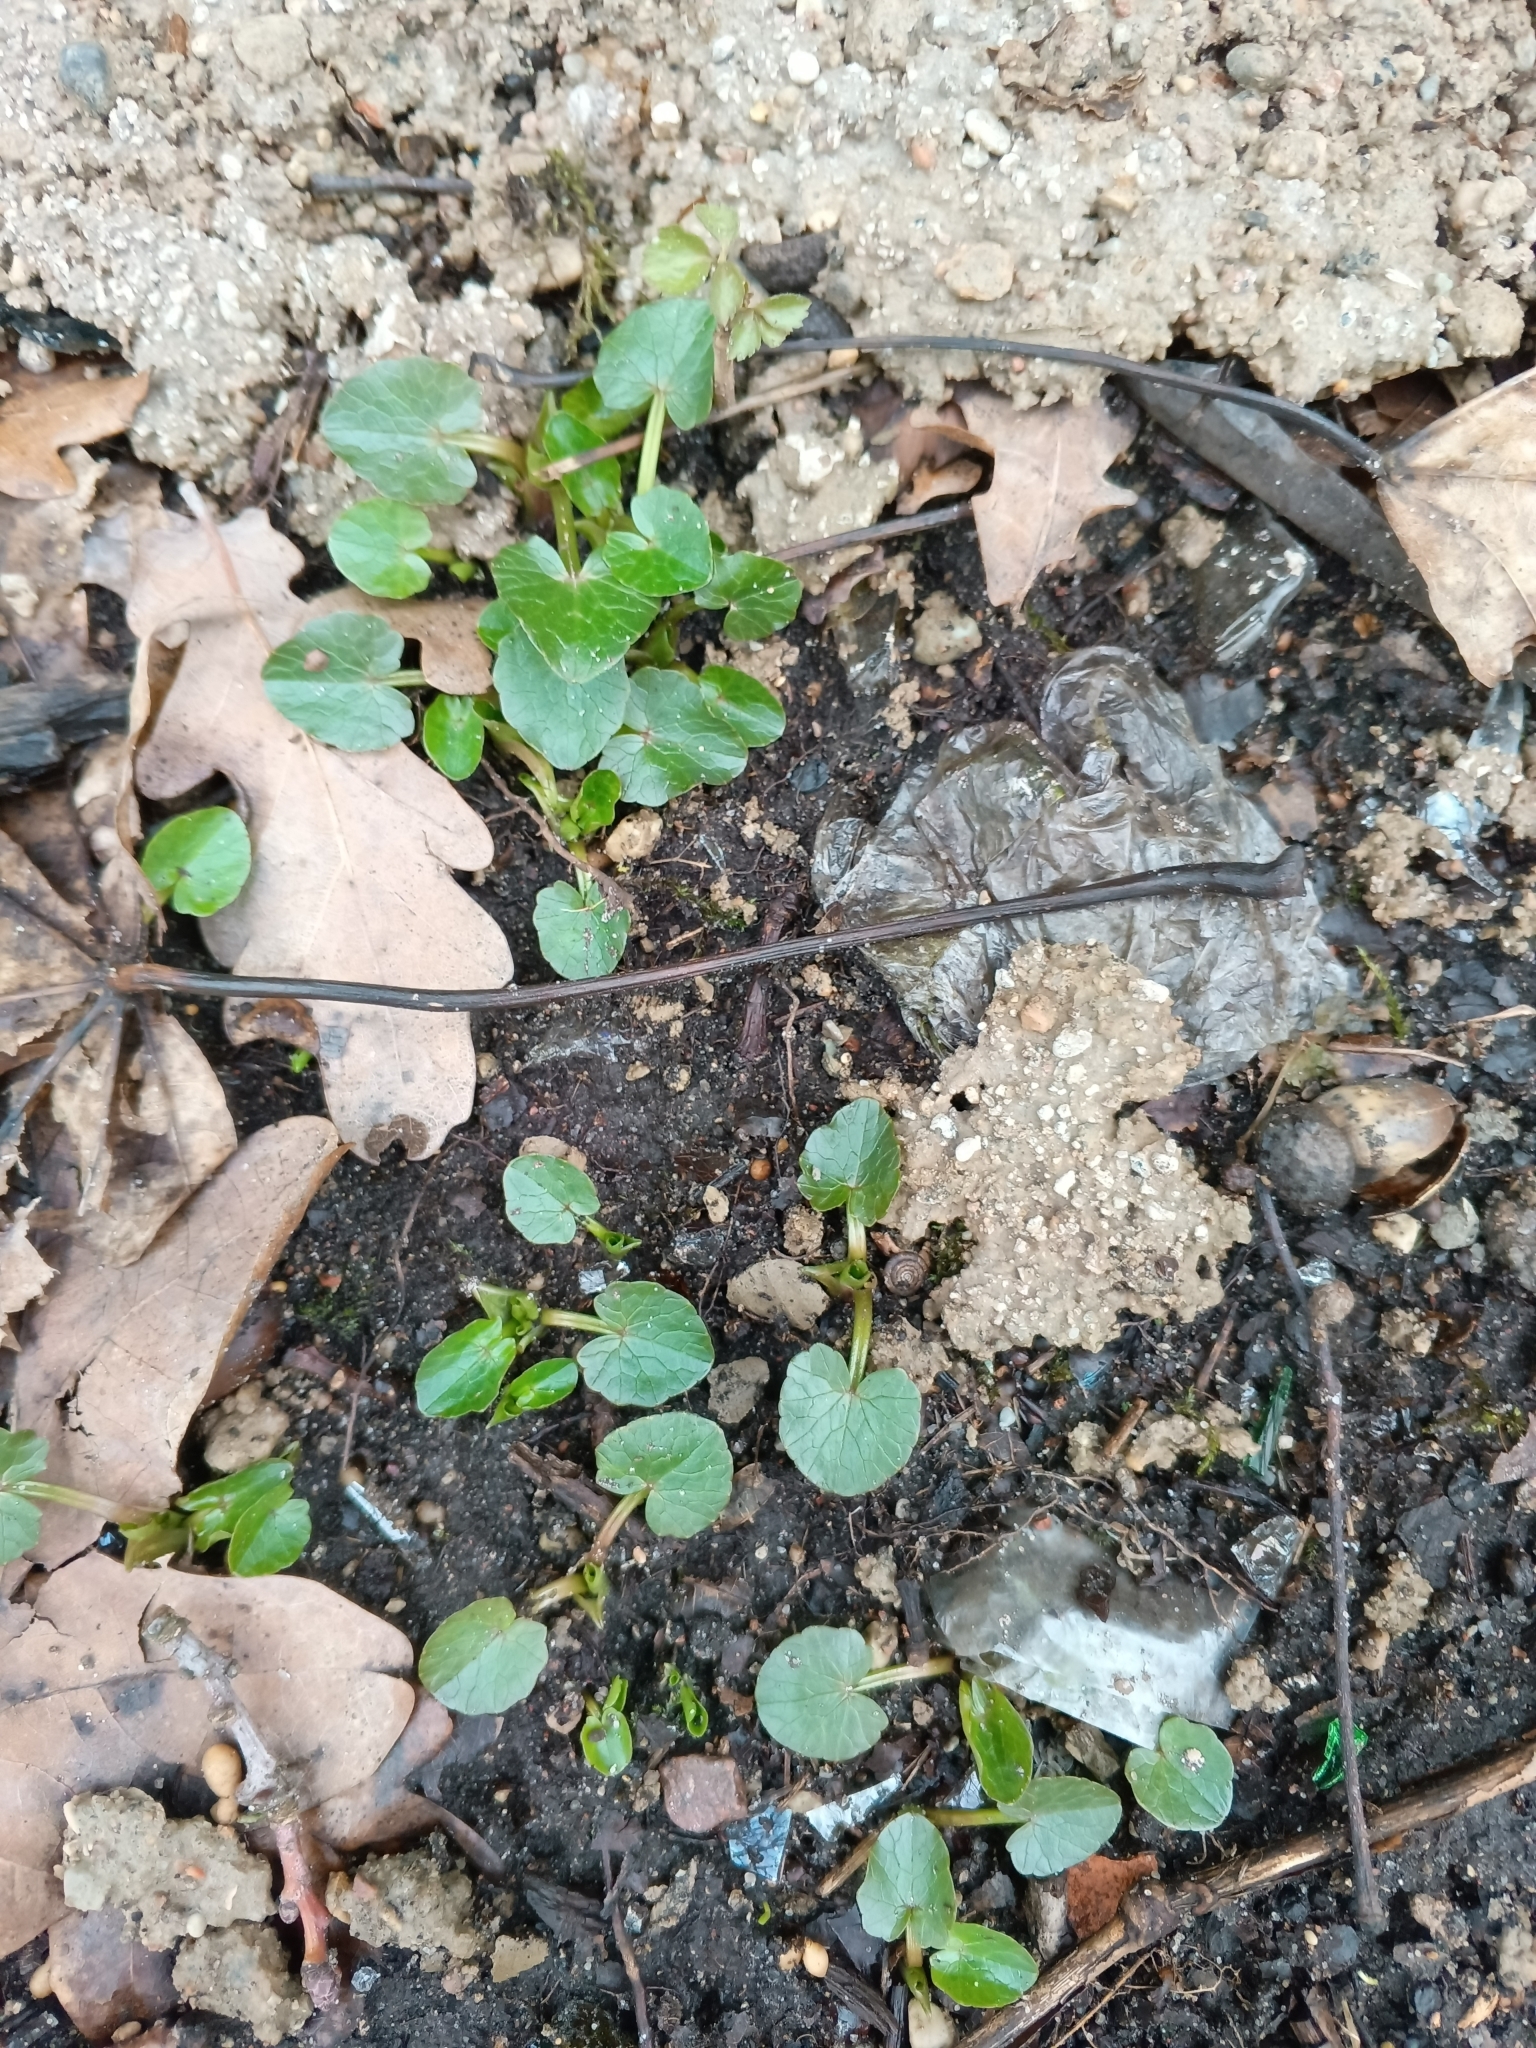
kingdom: Plantae
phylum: Tracheophyta
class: Magnoliopsida
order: Ranunculales
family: Ranunculaceae
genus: Ficaria
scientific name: Ficaria verna
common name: Lesser celandine
